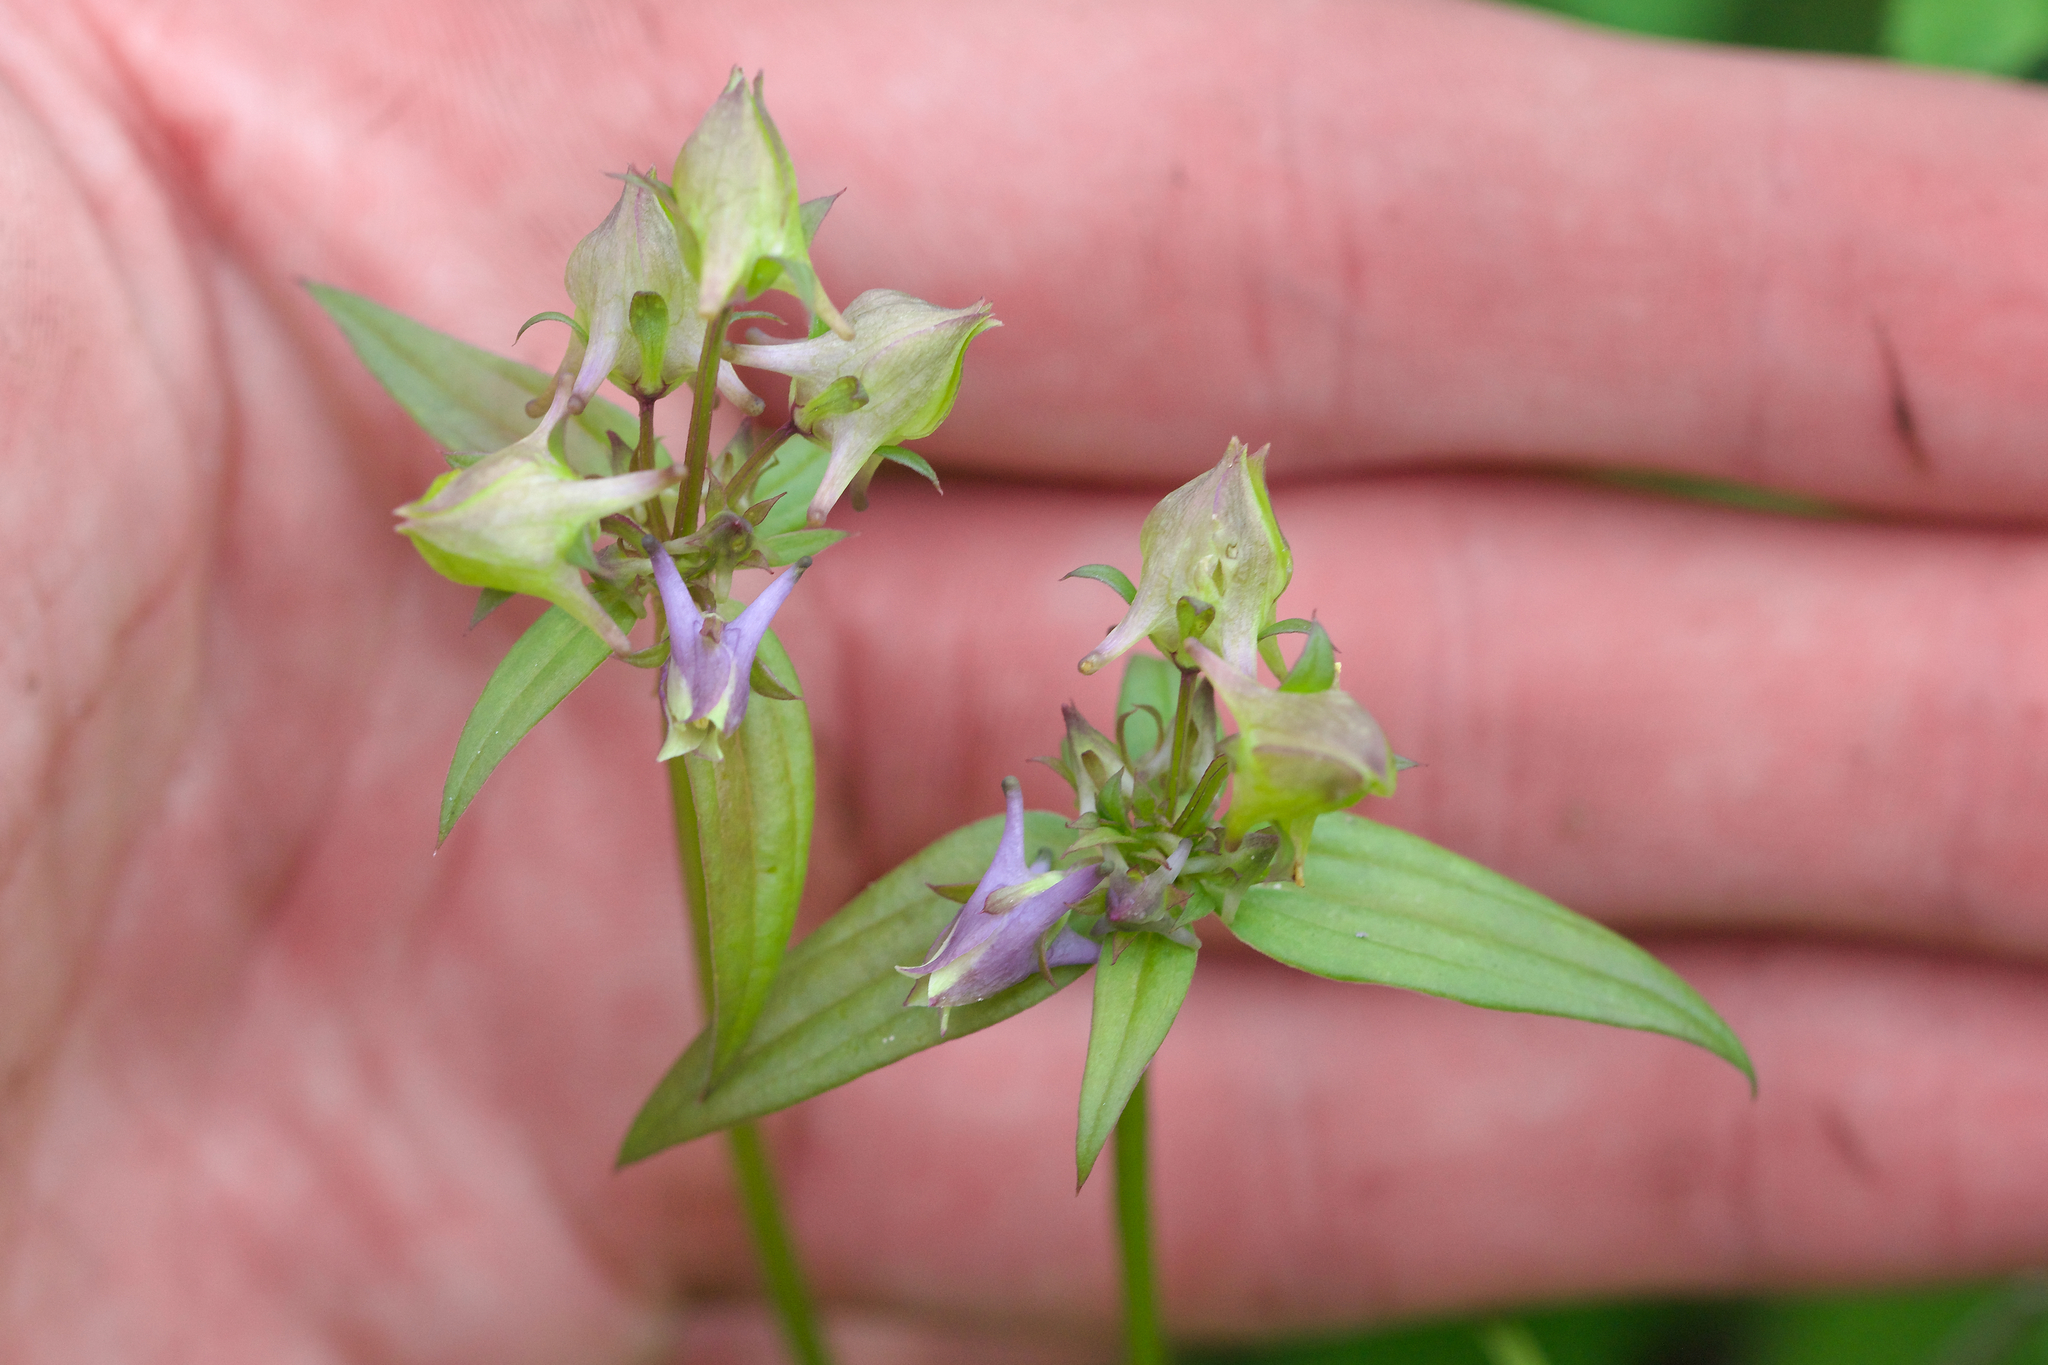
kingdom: Plantae
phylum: Tracheophyta
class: Magnoliopsida
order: Gentianales
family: Gentianaceae
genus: Halenia
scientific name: Halenia deflexa
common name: American spurred gentian
